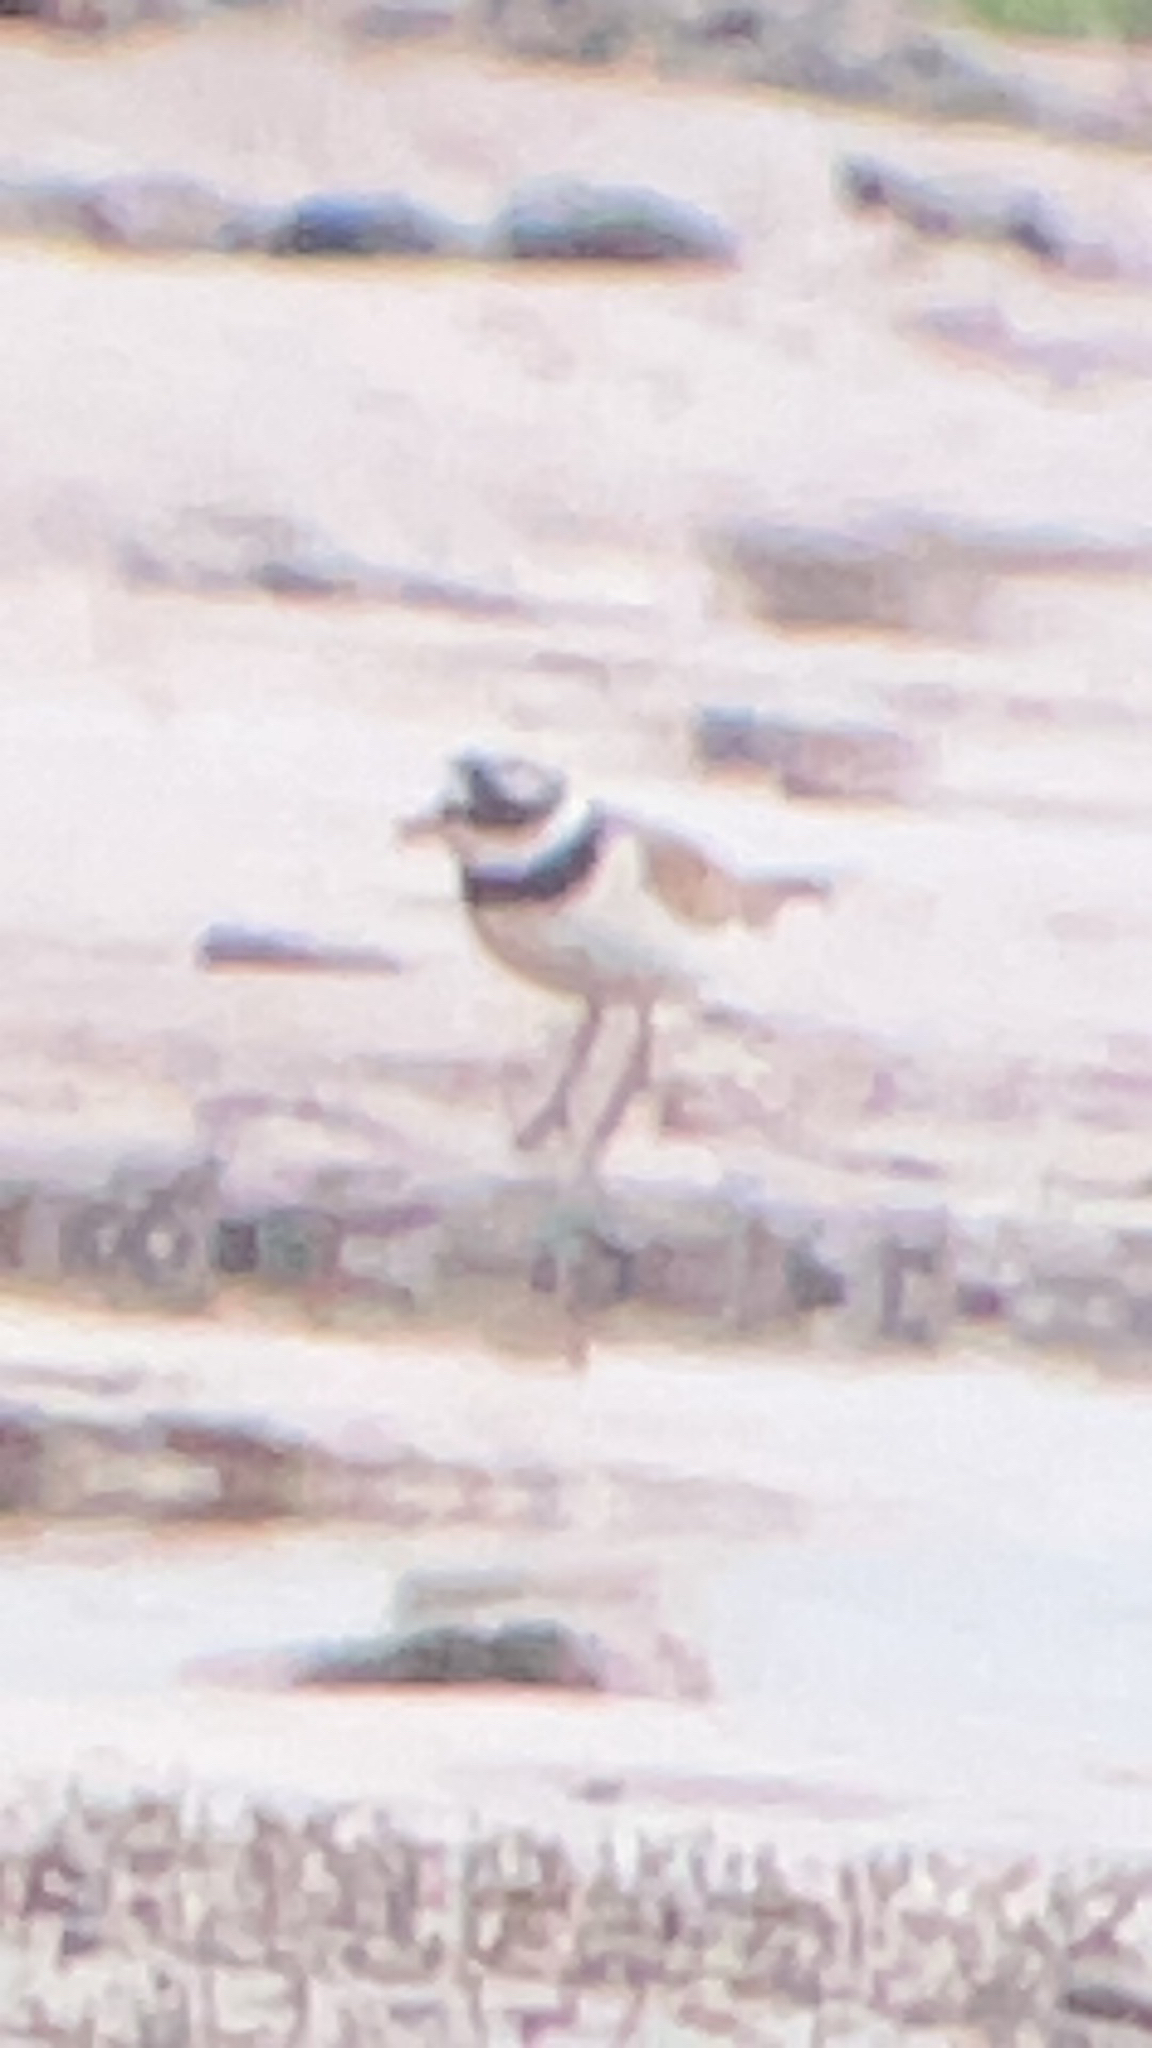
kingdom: Animalia
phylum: Chordata
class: Aves
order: Charadriiformes
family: Charadriidae
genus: Charadrius
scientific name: Charadrius hiaticula
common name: Common ringed plover
